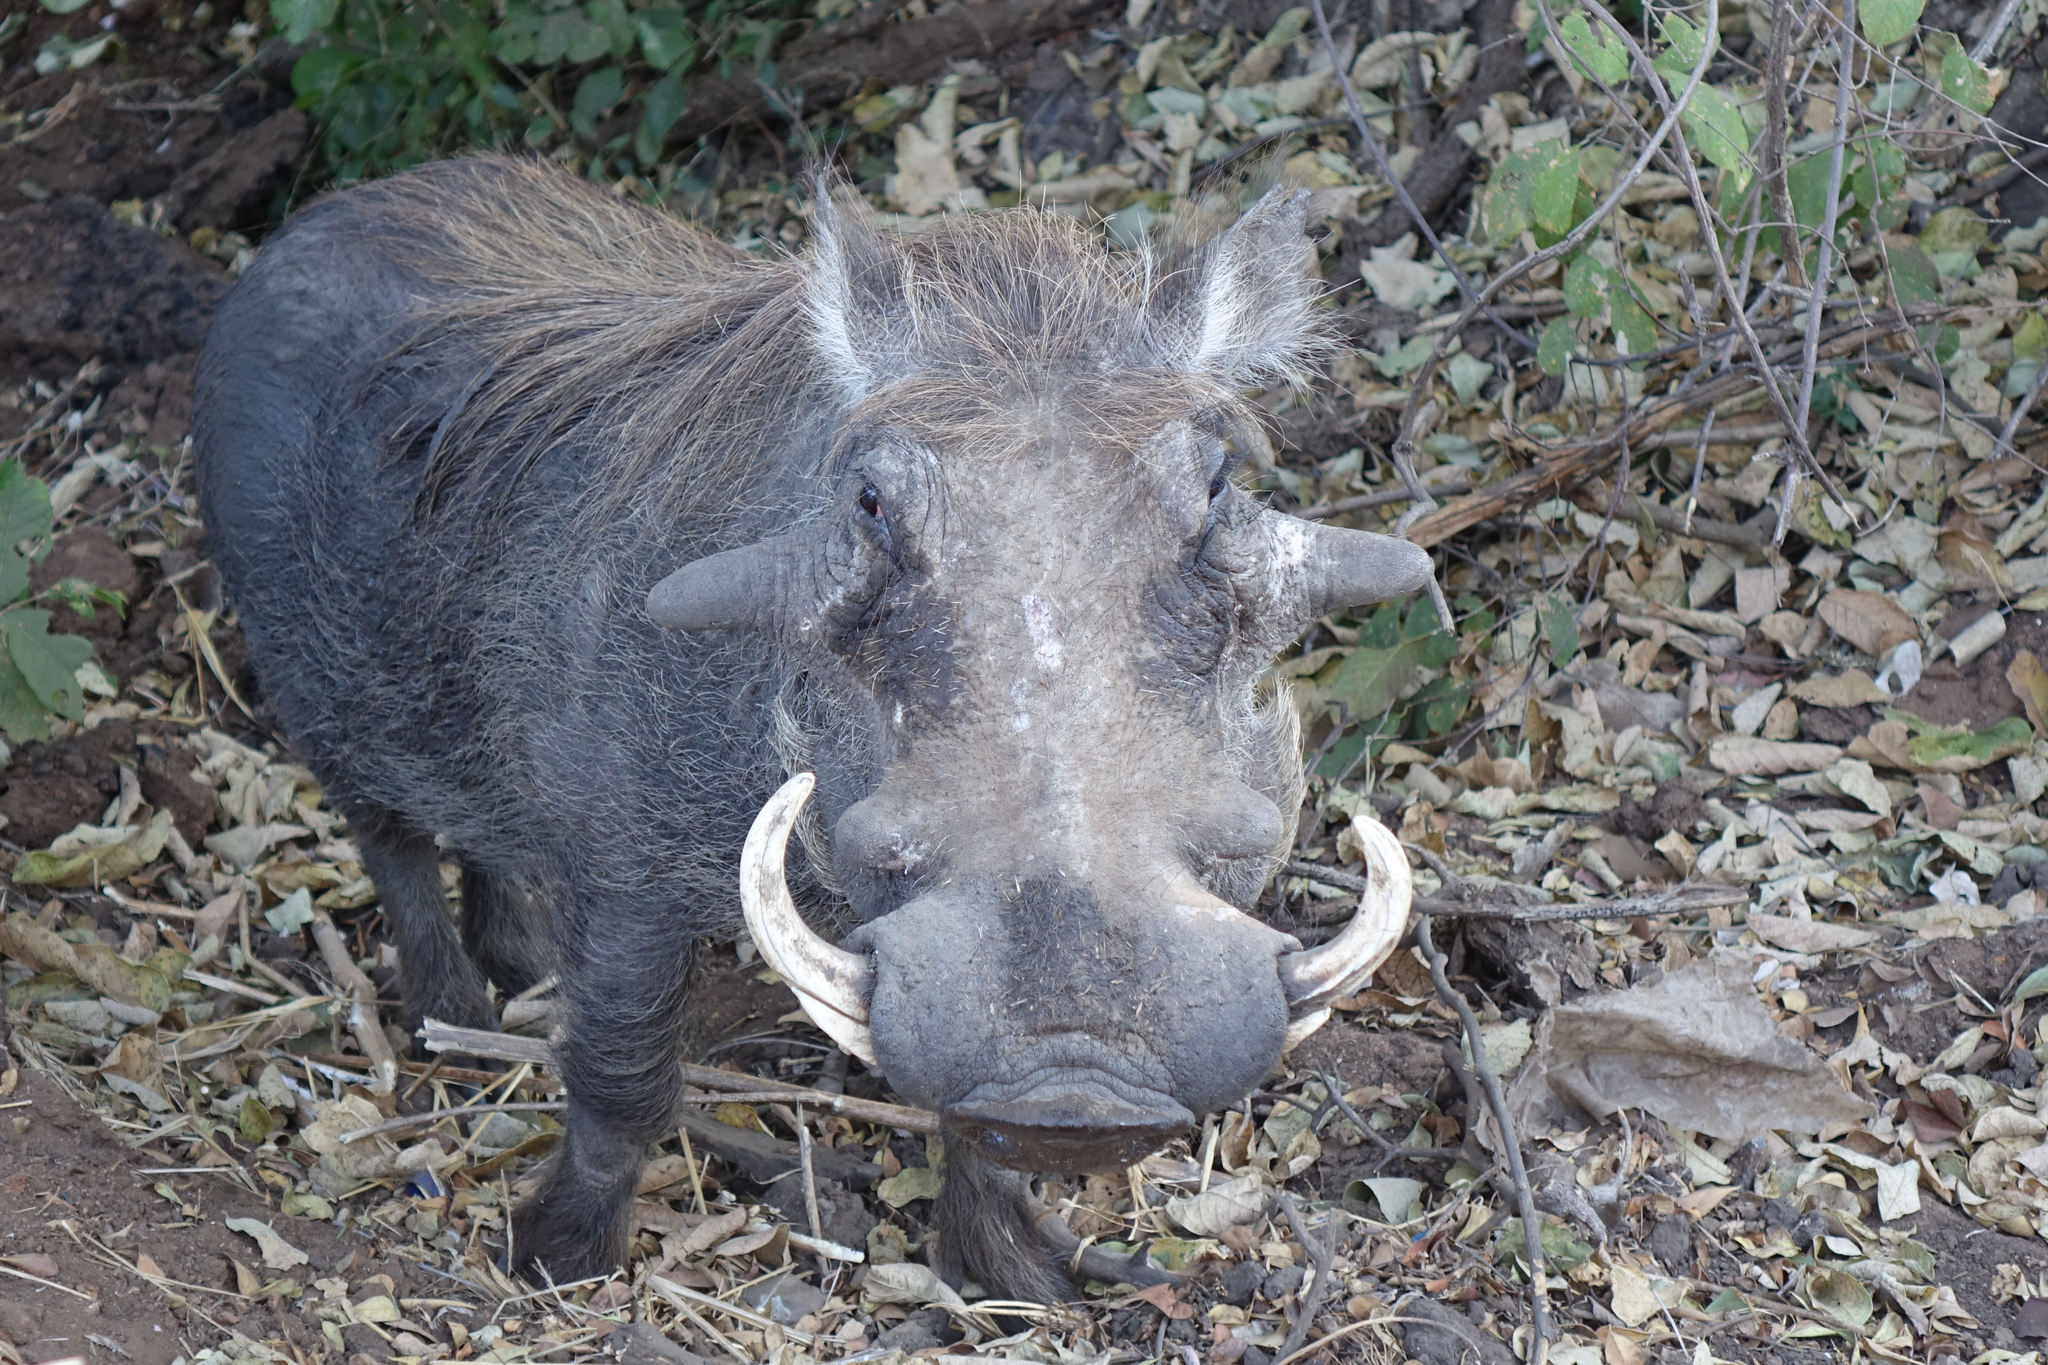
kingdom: Animalia
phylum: Chordata
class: Mammalia
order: Artiodactyla
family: Suidae
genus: Phacochoerus
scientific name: Phacochoerus africanus
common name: Common warthog
